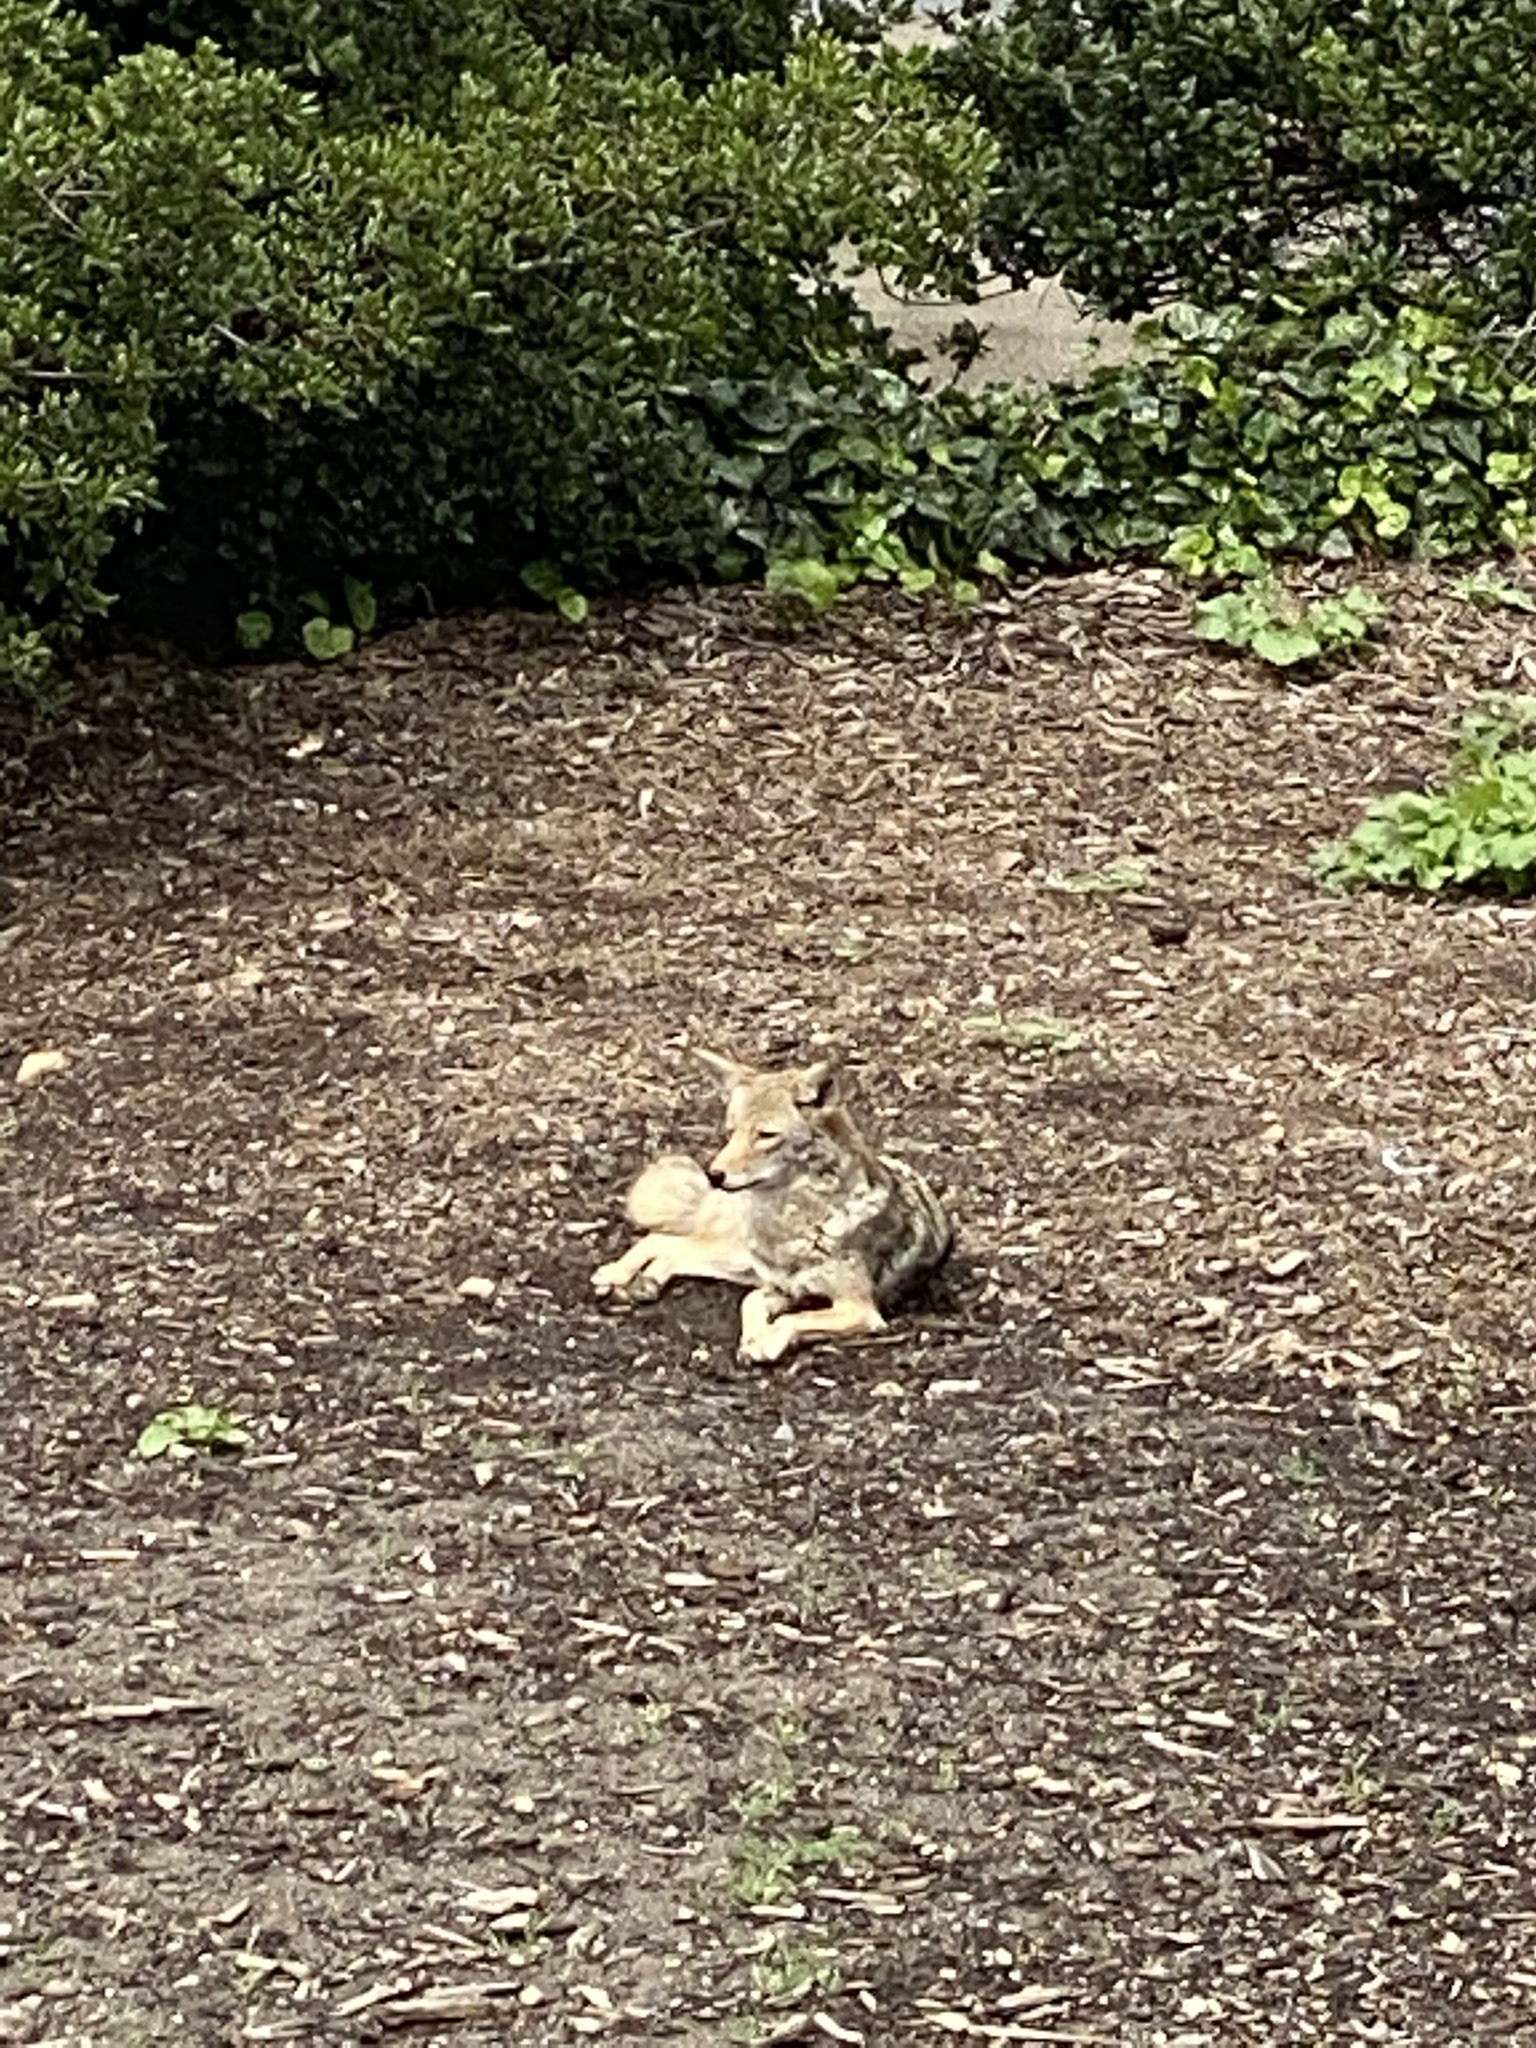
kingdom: Animalia
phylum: Chordata
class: Mammalia
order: Carnivora
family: Canidae
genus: Canis
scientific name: Canis latrans
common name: Coyote
